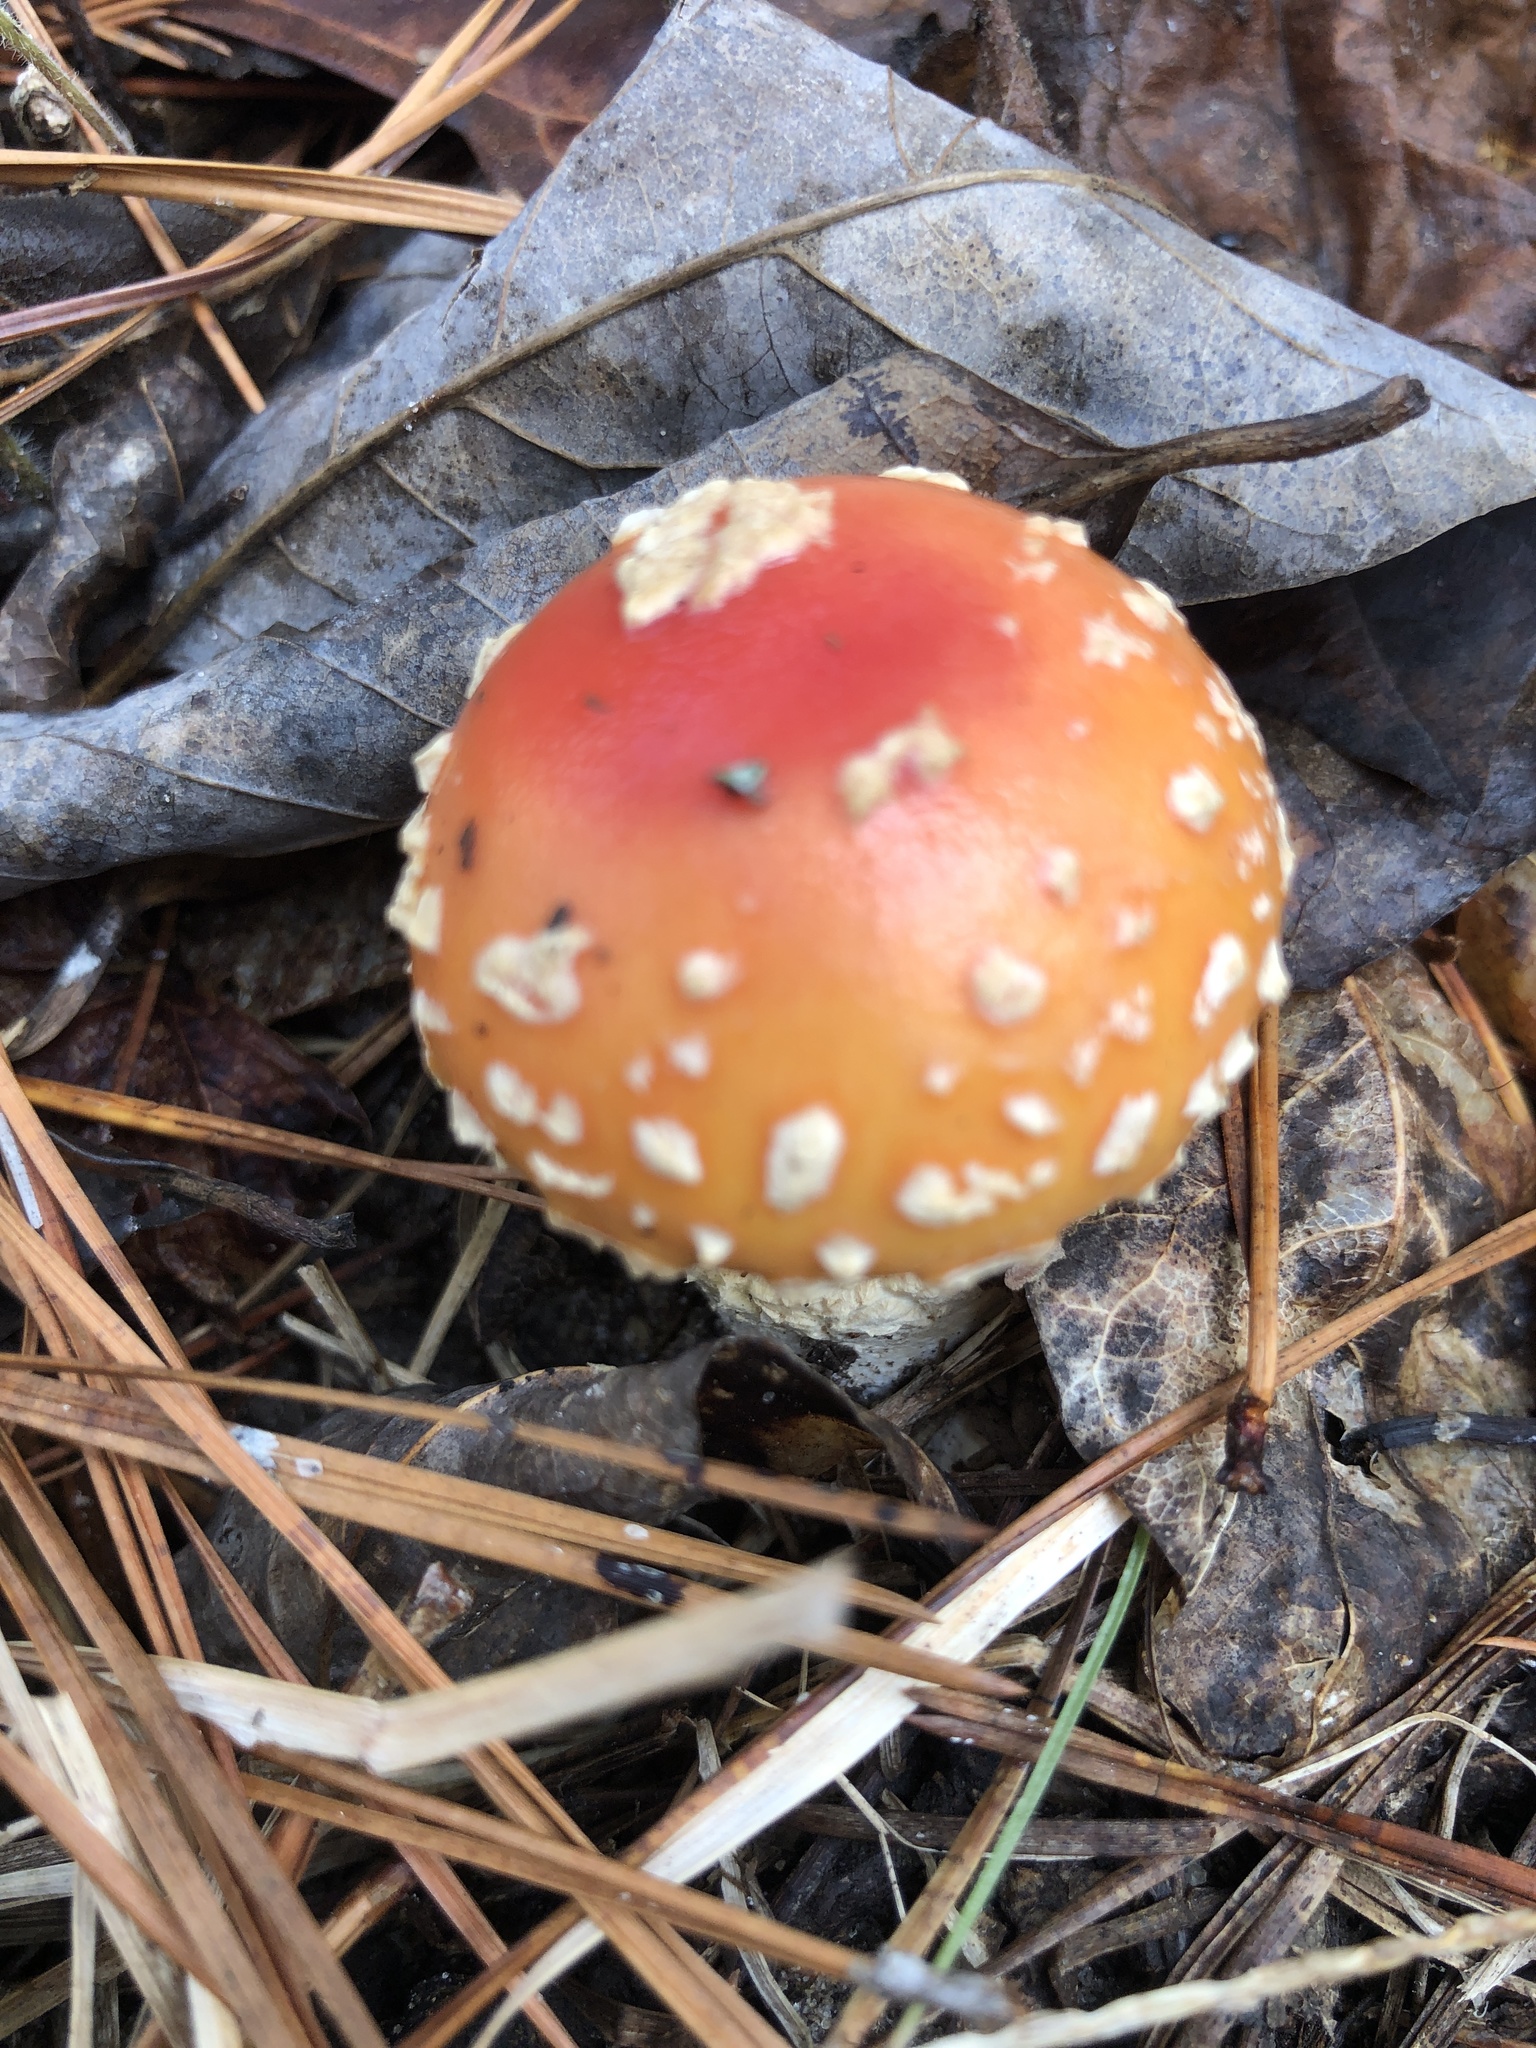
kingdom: Fungi
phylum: Basidiomycota
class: Agaricomycetes
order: Agaricales
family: Amanitaceae
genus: Amanita
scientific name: Amanita persicina
